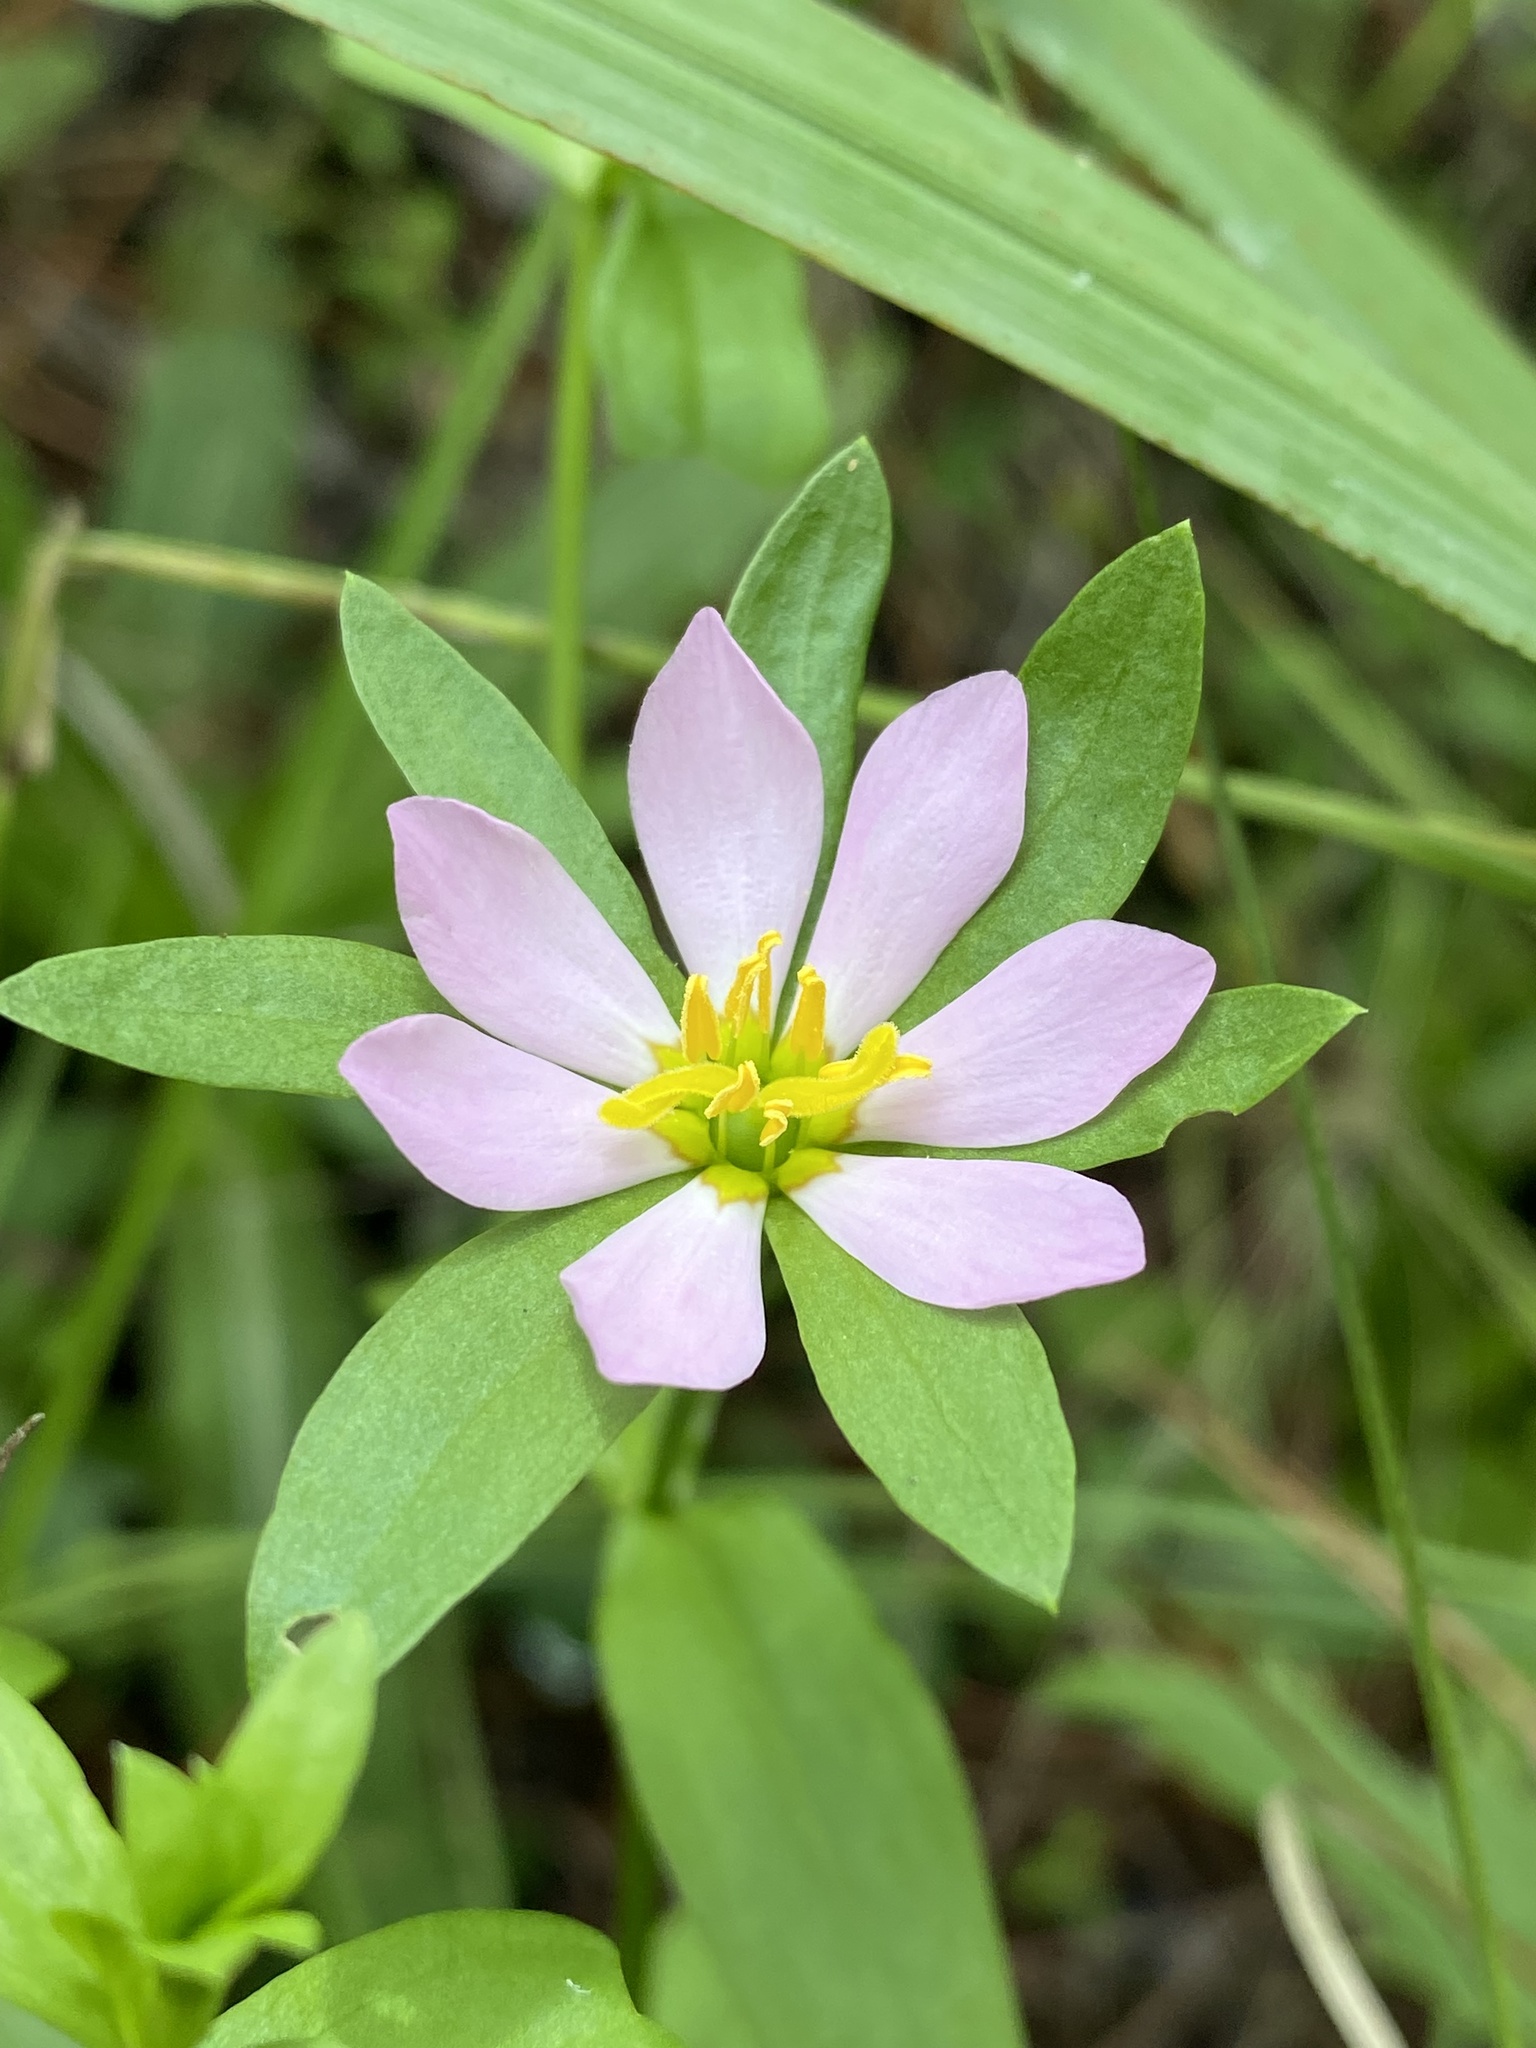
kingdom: Plantae
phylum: Tracheophyta
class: Magnoliopsida
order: Gentianales
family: Gentianaceae
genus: Sabatia
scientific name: Sabatia calycina
